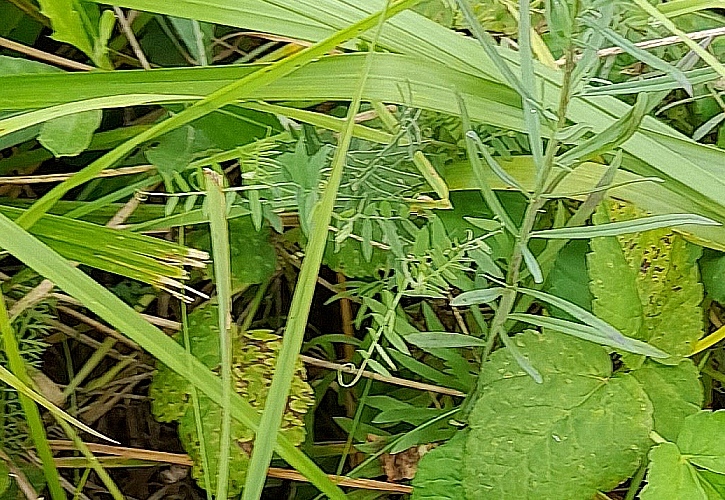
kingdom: Plantae
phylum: Tracheophyta
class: Magnoliopsida
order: Fabales
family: Fabaceae
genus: Vicia
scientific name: Vicia cracca
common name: Bird vetch
